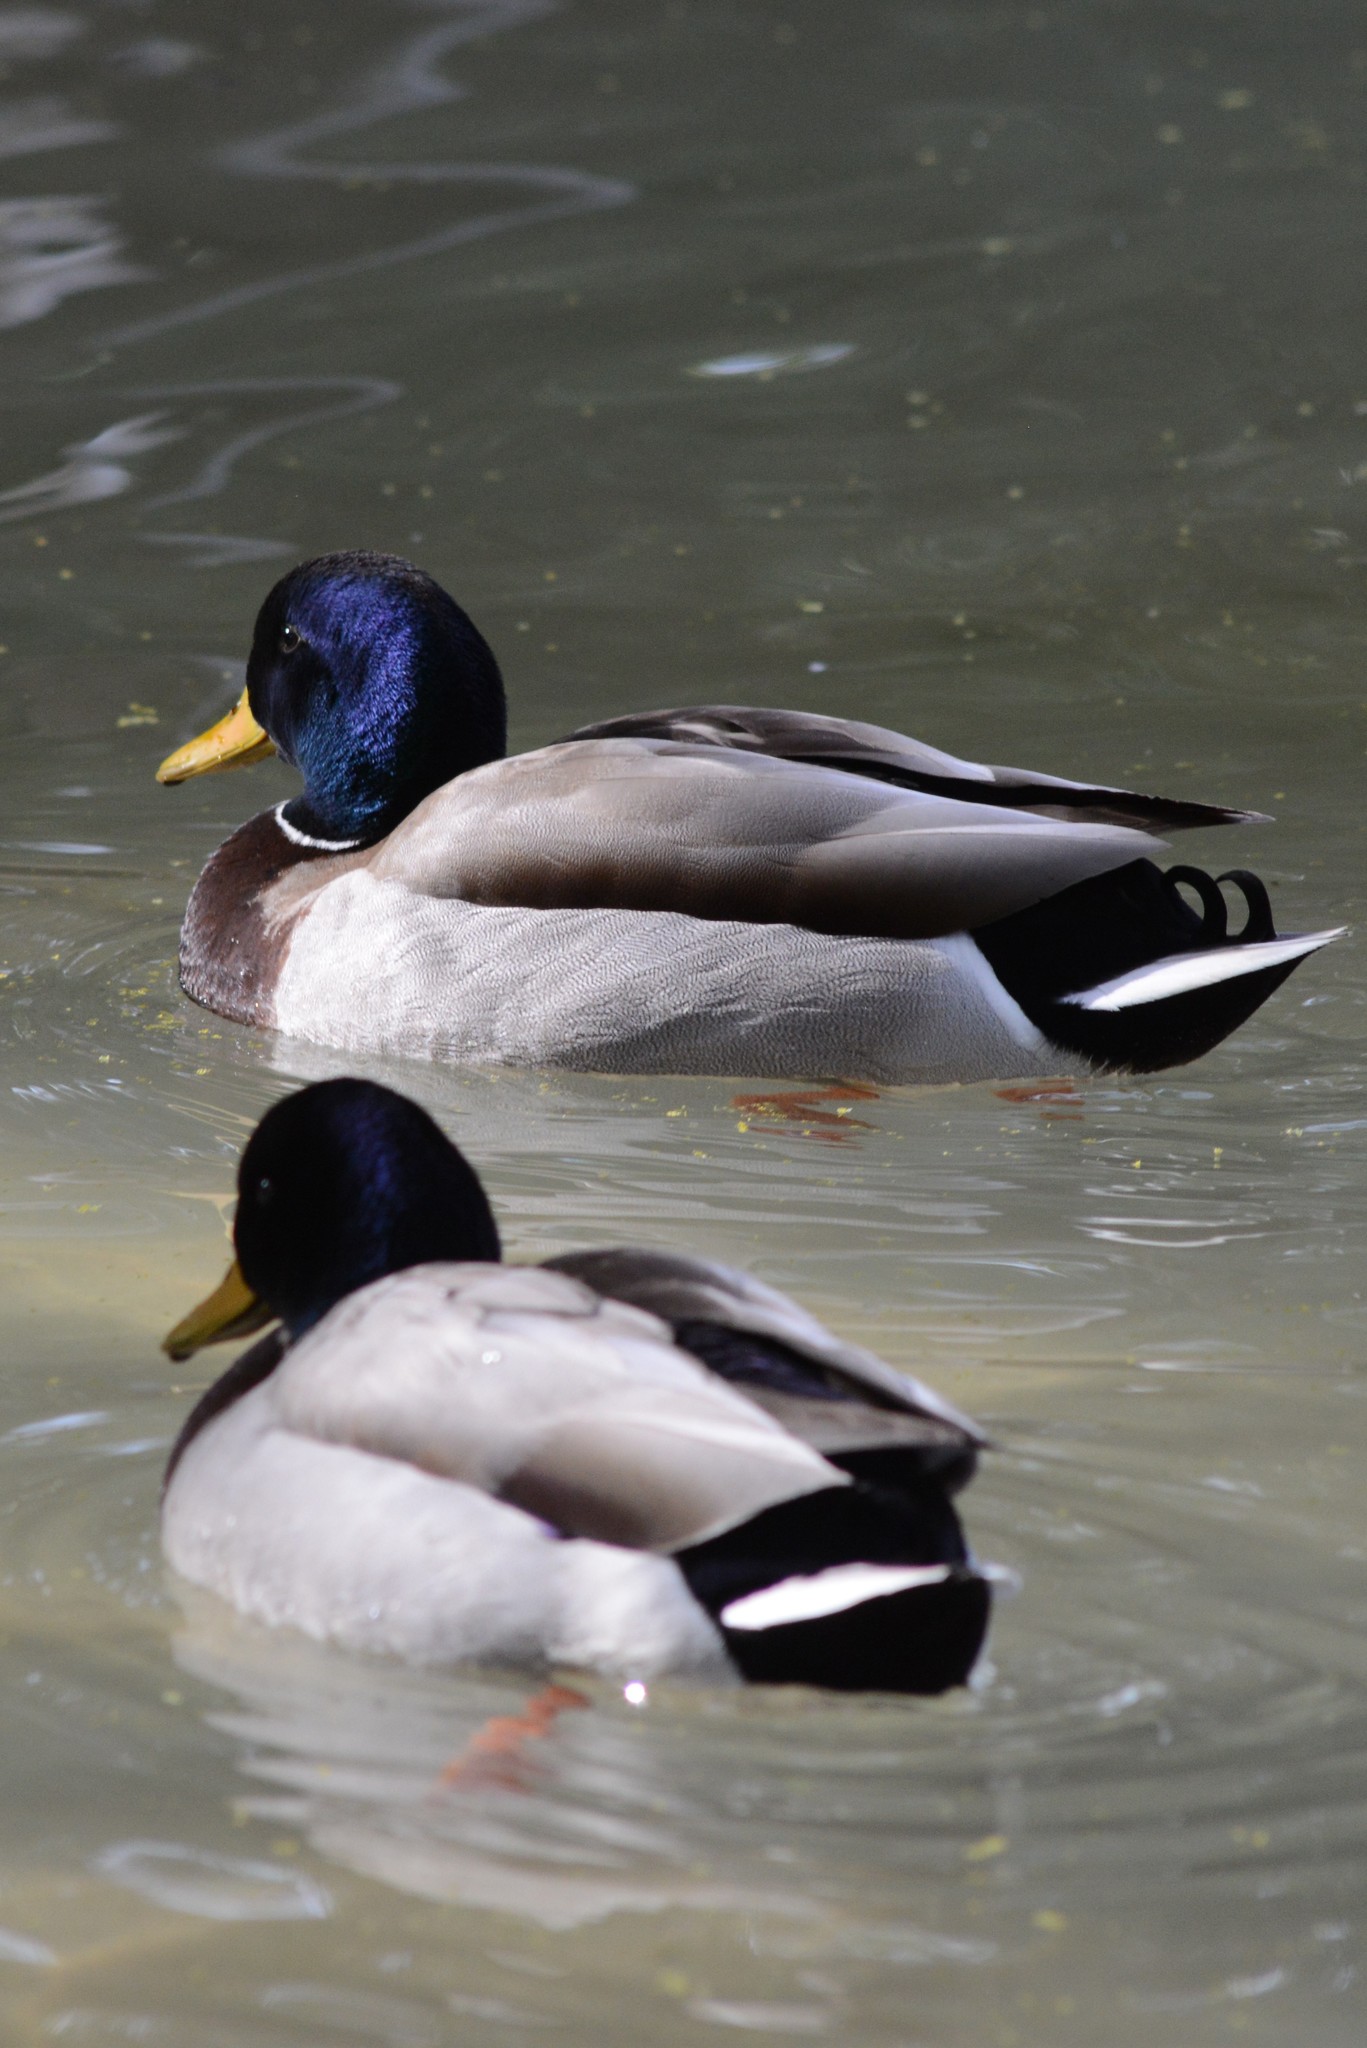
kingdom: Animalia
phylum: Chordata
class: Aves
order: Anseriformes
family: Anatidae
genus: Anas
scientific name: Anas platyrhynchos
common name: Mallard
